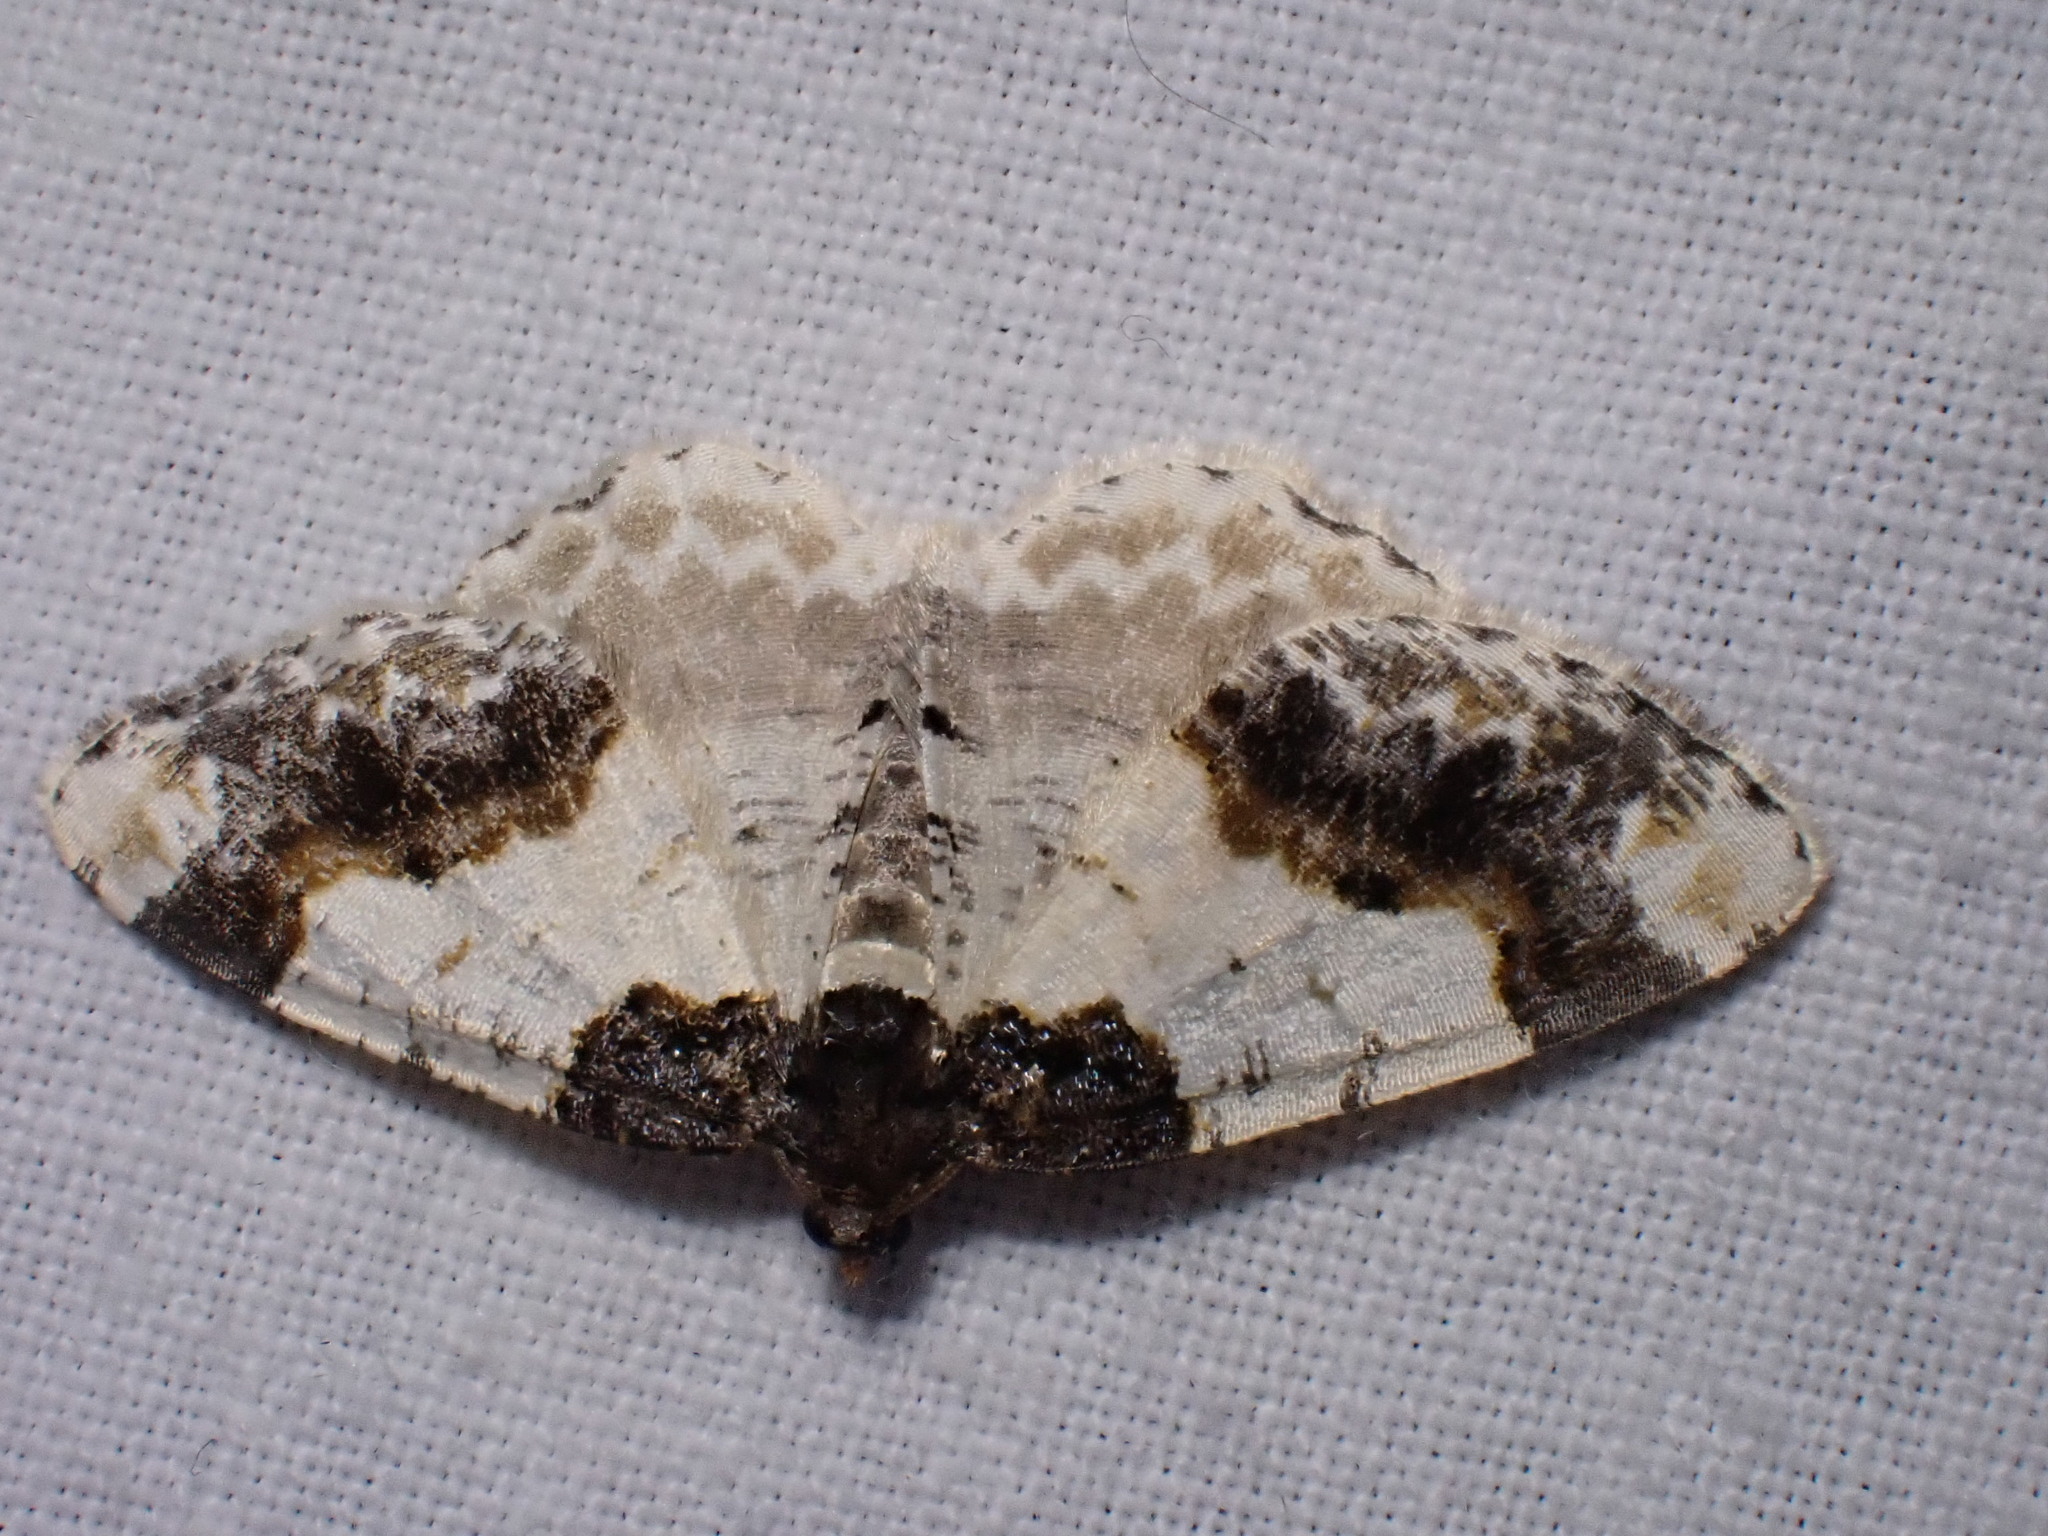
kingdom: Animalia
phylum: Arthropoda
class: Insecta
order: Lepidoptera
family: Geometridae
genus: Ligdia
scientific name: Ligdia adustata
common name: Scorched carpet
